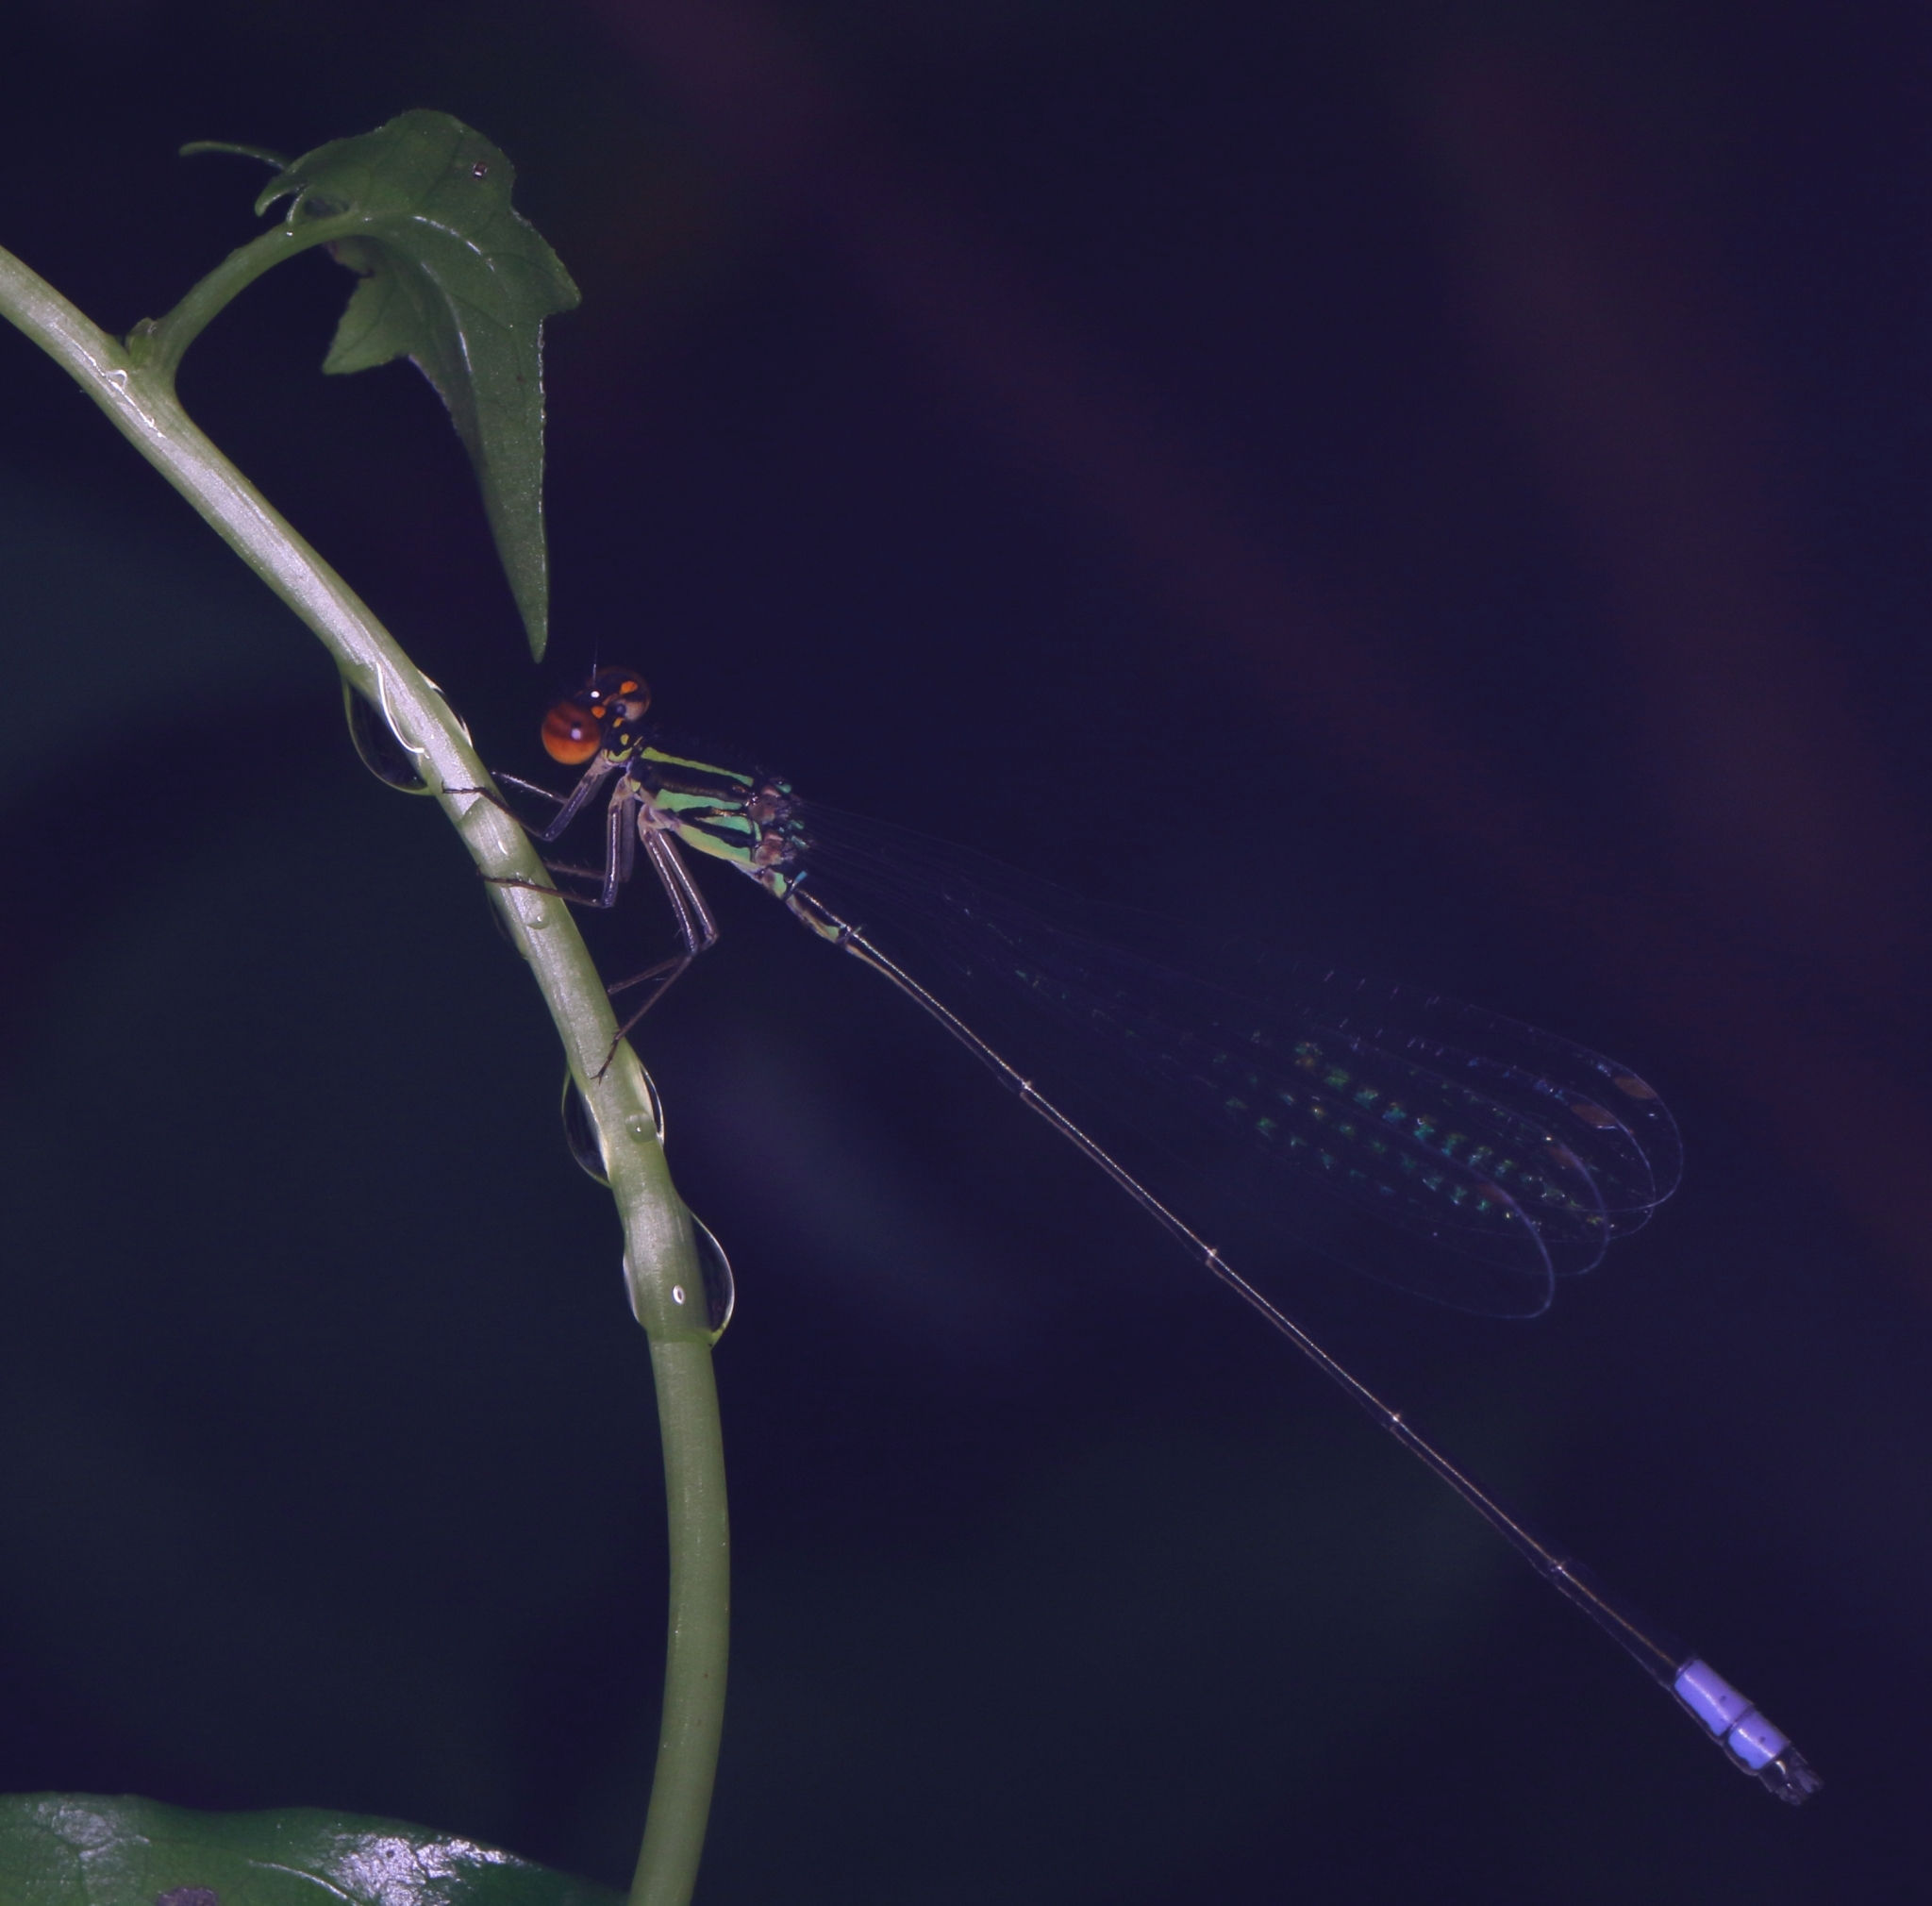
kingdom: Animalia
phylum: Arthropoda
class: Insecta
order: Odonata
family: Coenagrionidae
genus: Pseudagrion
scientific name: Pseudagrion hageni
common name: Painted sprite
